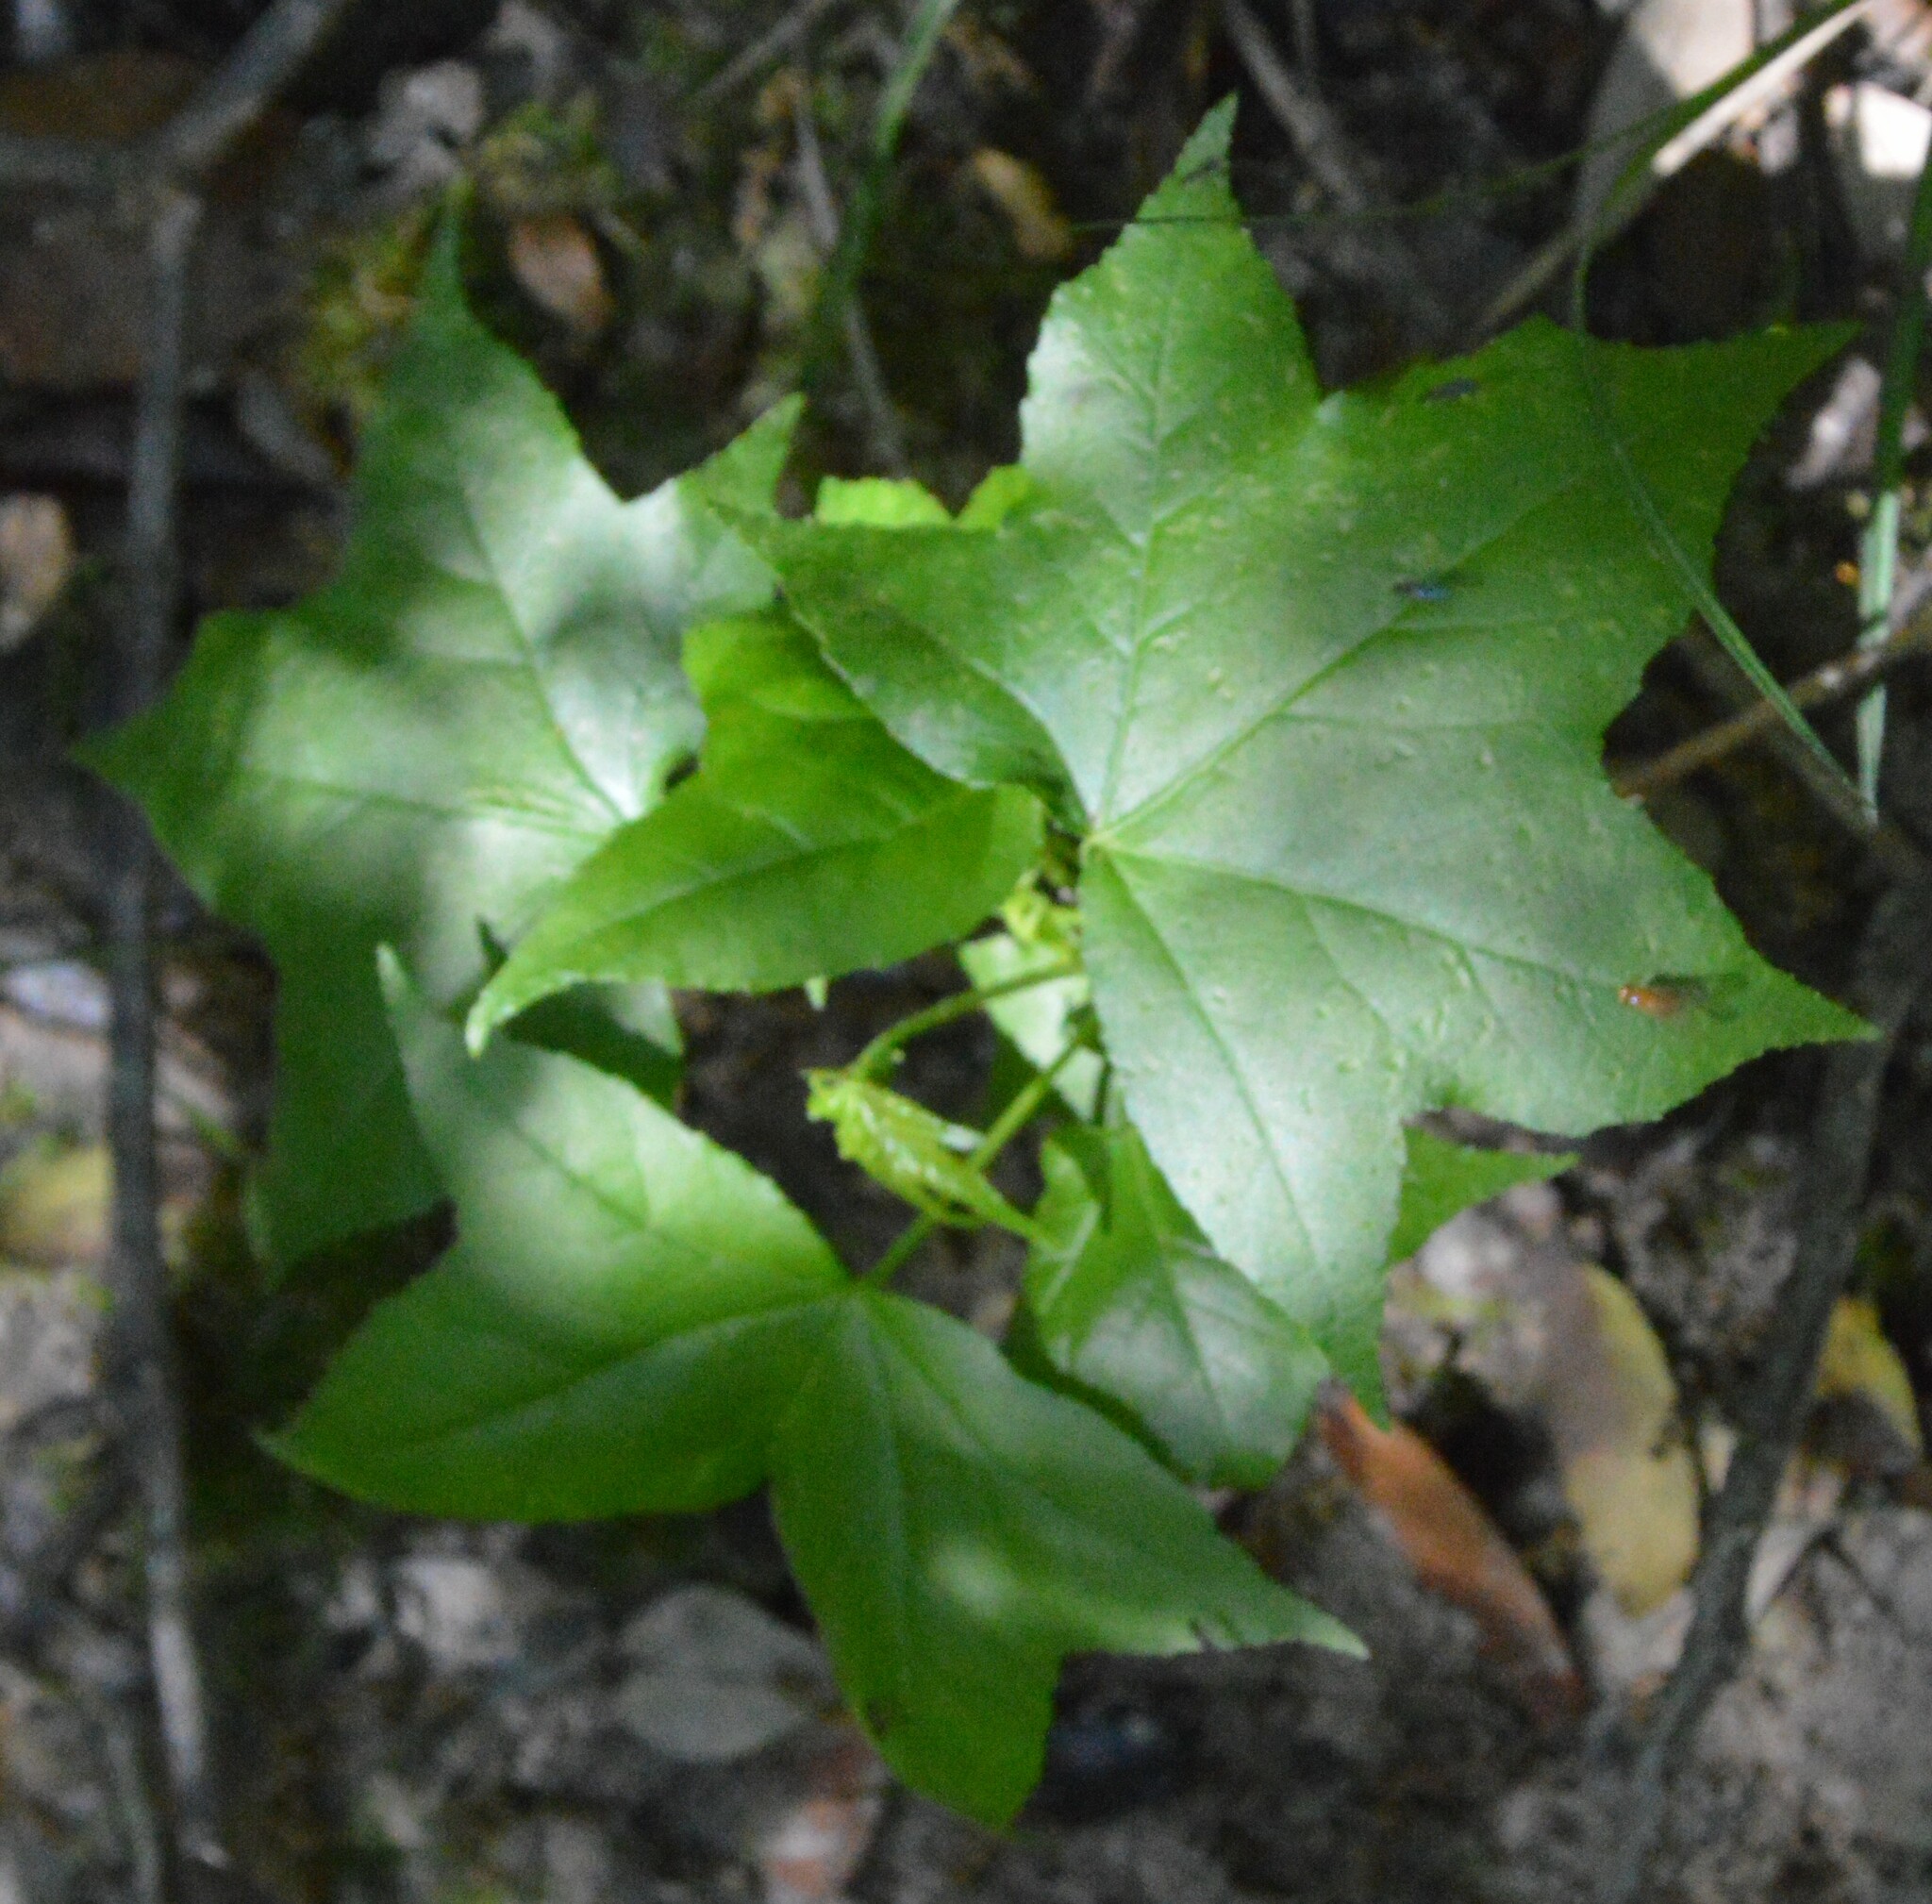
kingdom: Plantae
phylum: Tracheophyta
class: Magnoliopsida
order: Saxifragales
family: Altingiaceae
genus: Liquidambar
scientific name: Liquidambar styraciflua
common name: Sweet gum
